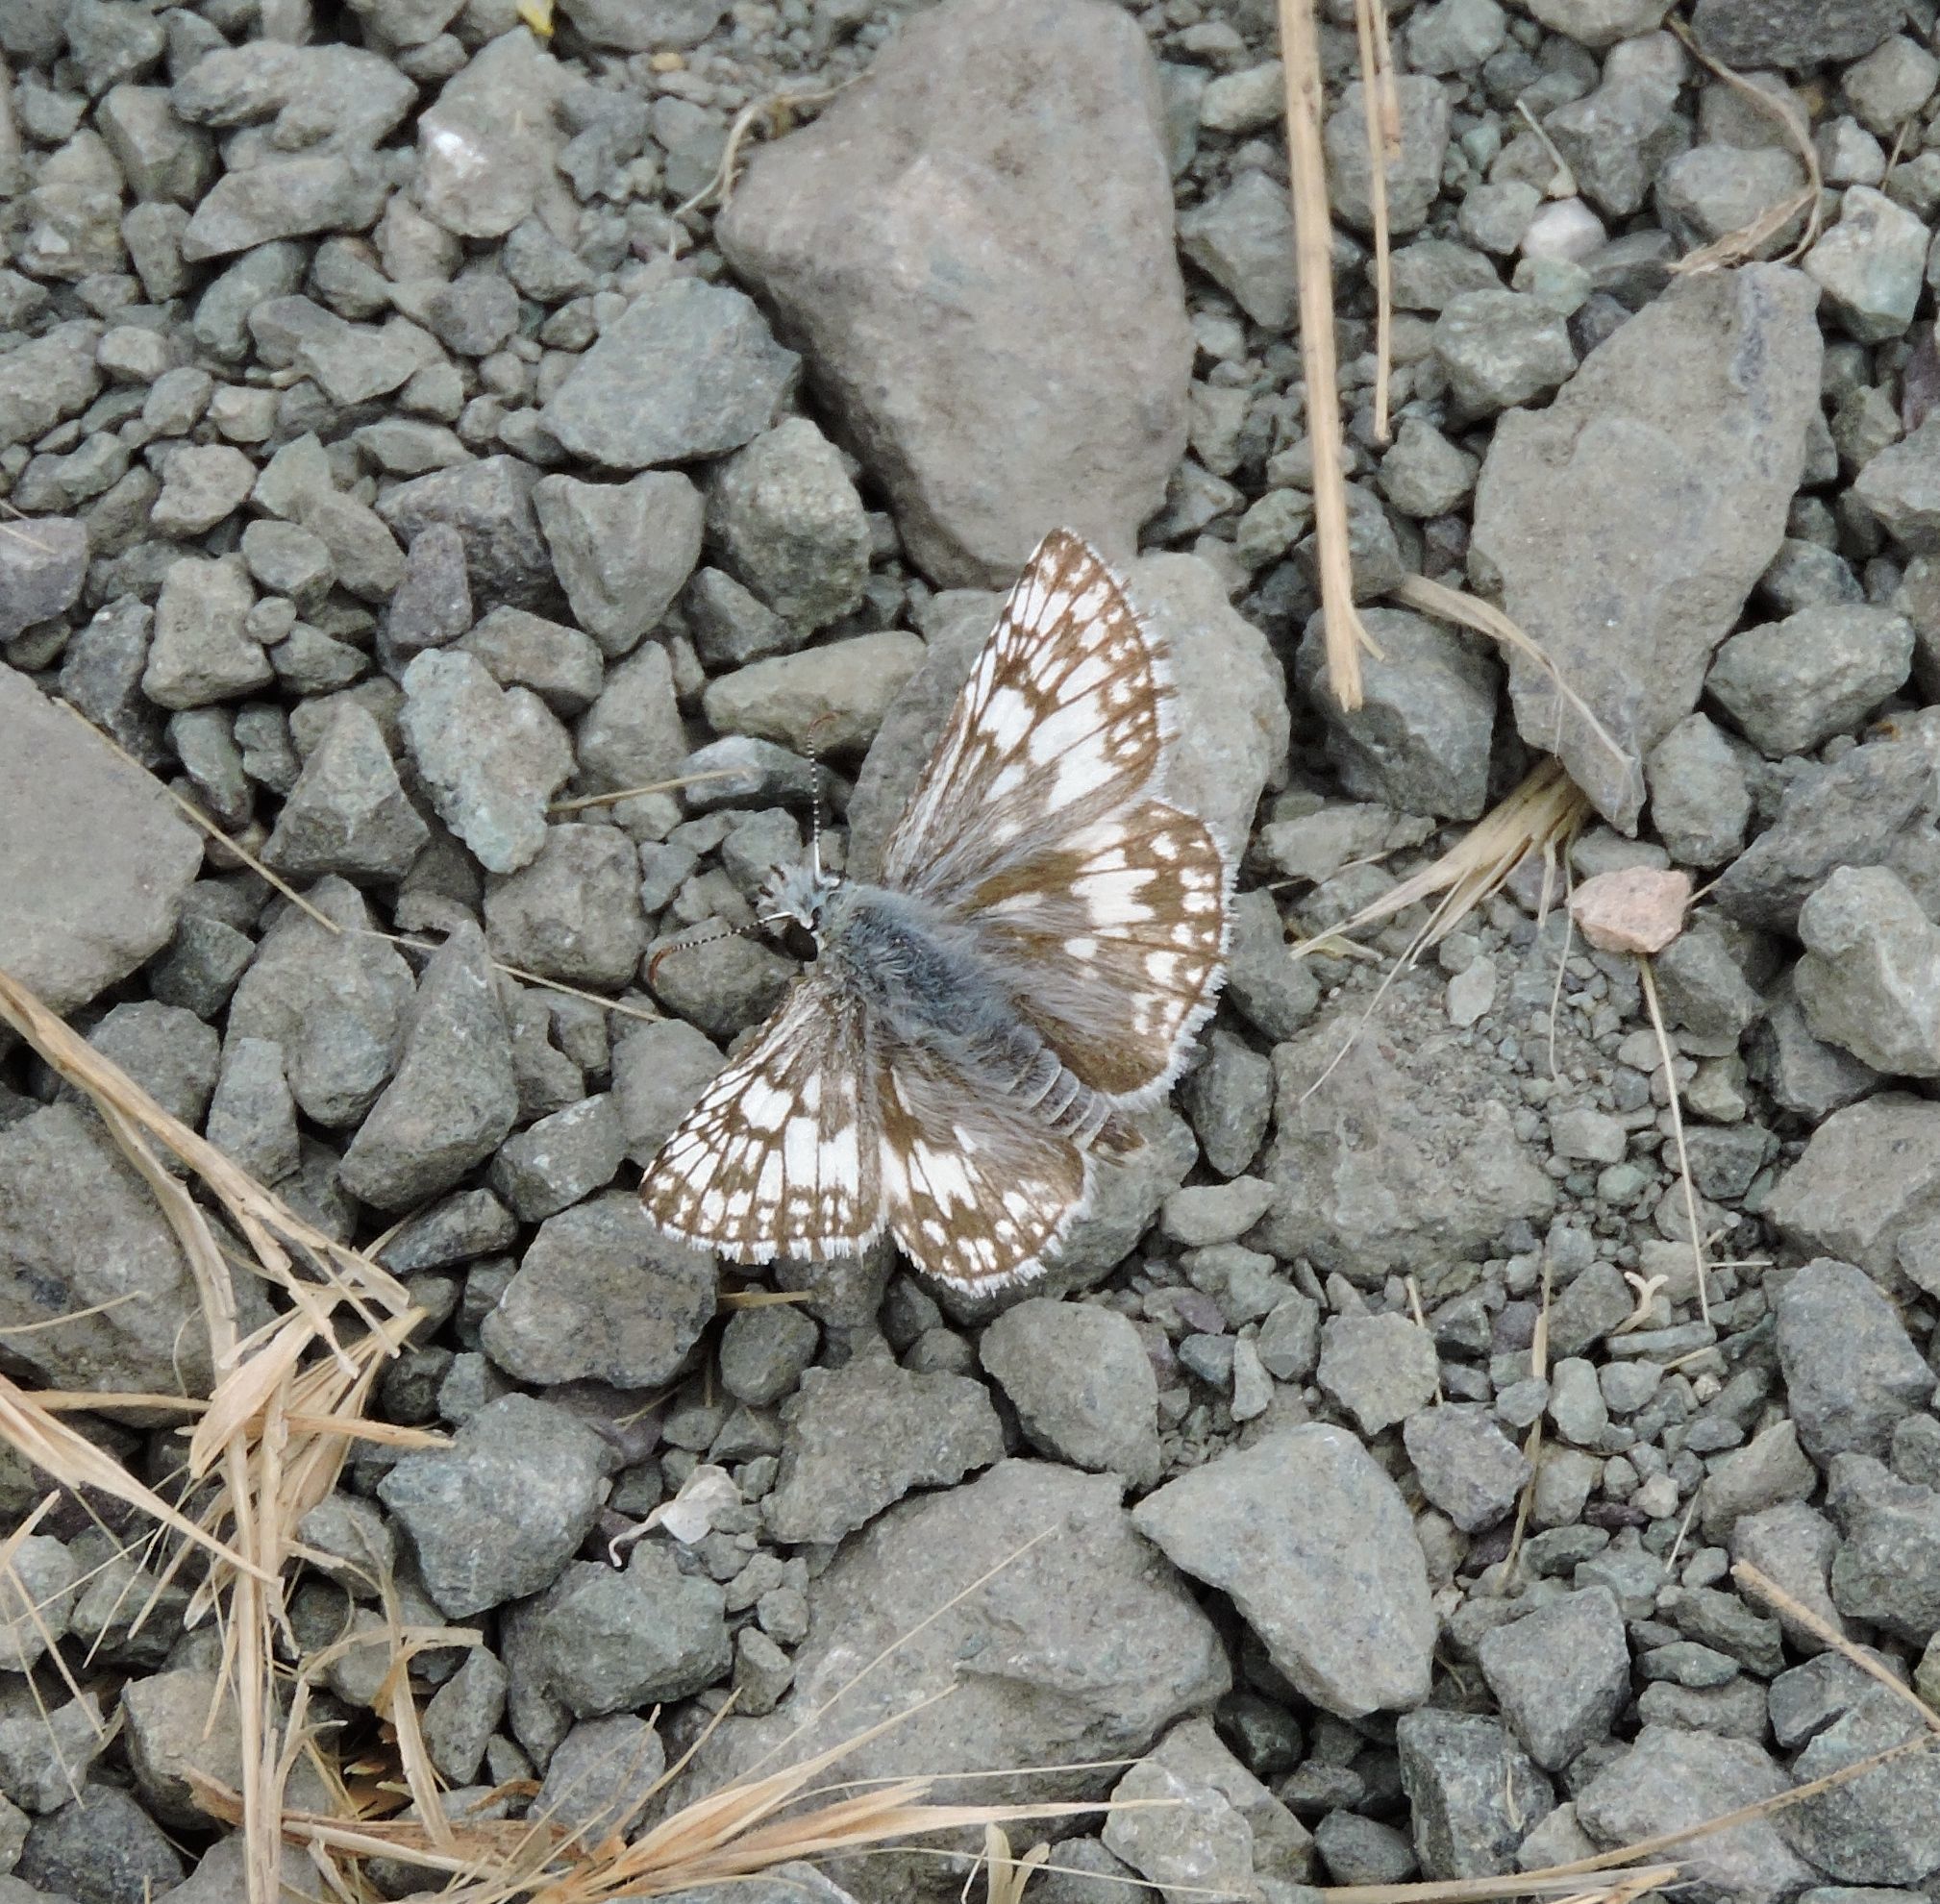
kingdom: Animalia
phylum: Arthropoda
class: Insecta
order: Lepidoptera
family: Hesperiidae
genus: Burnsius
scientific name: Burnsius
